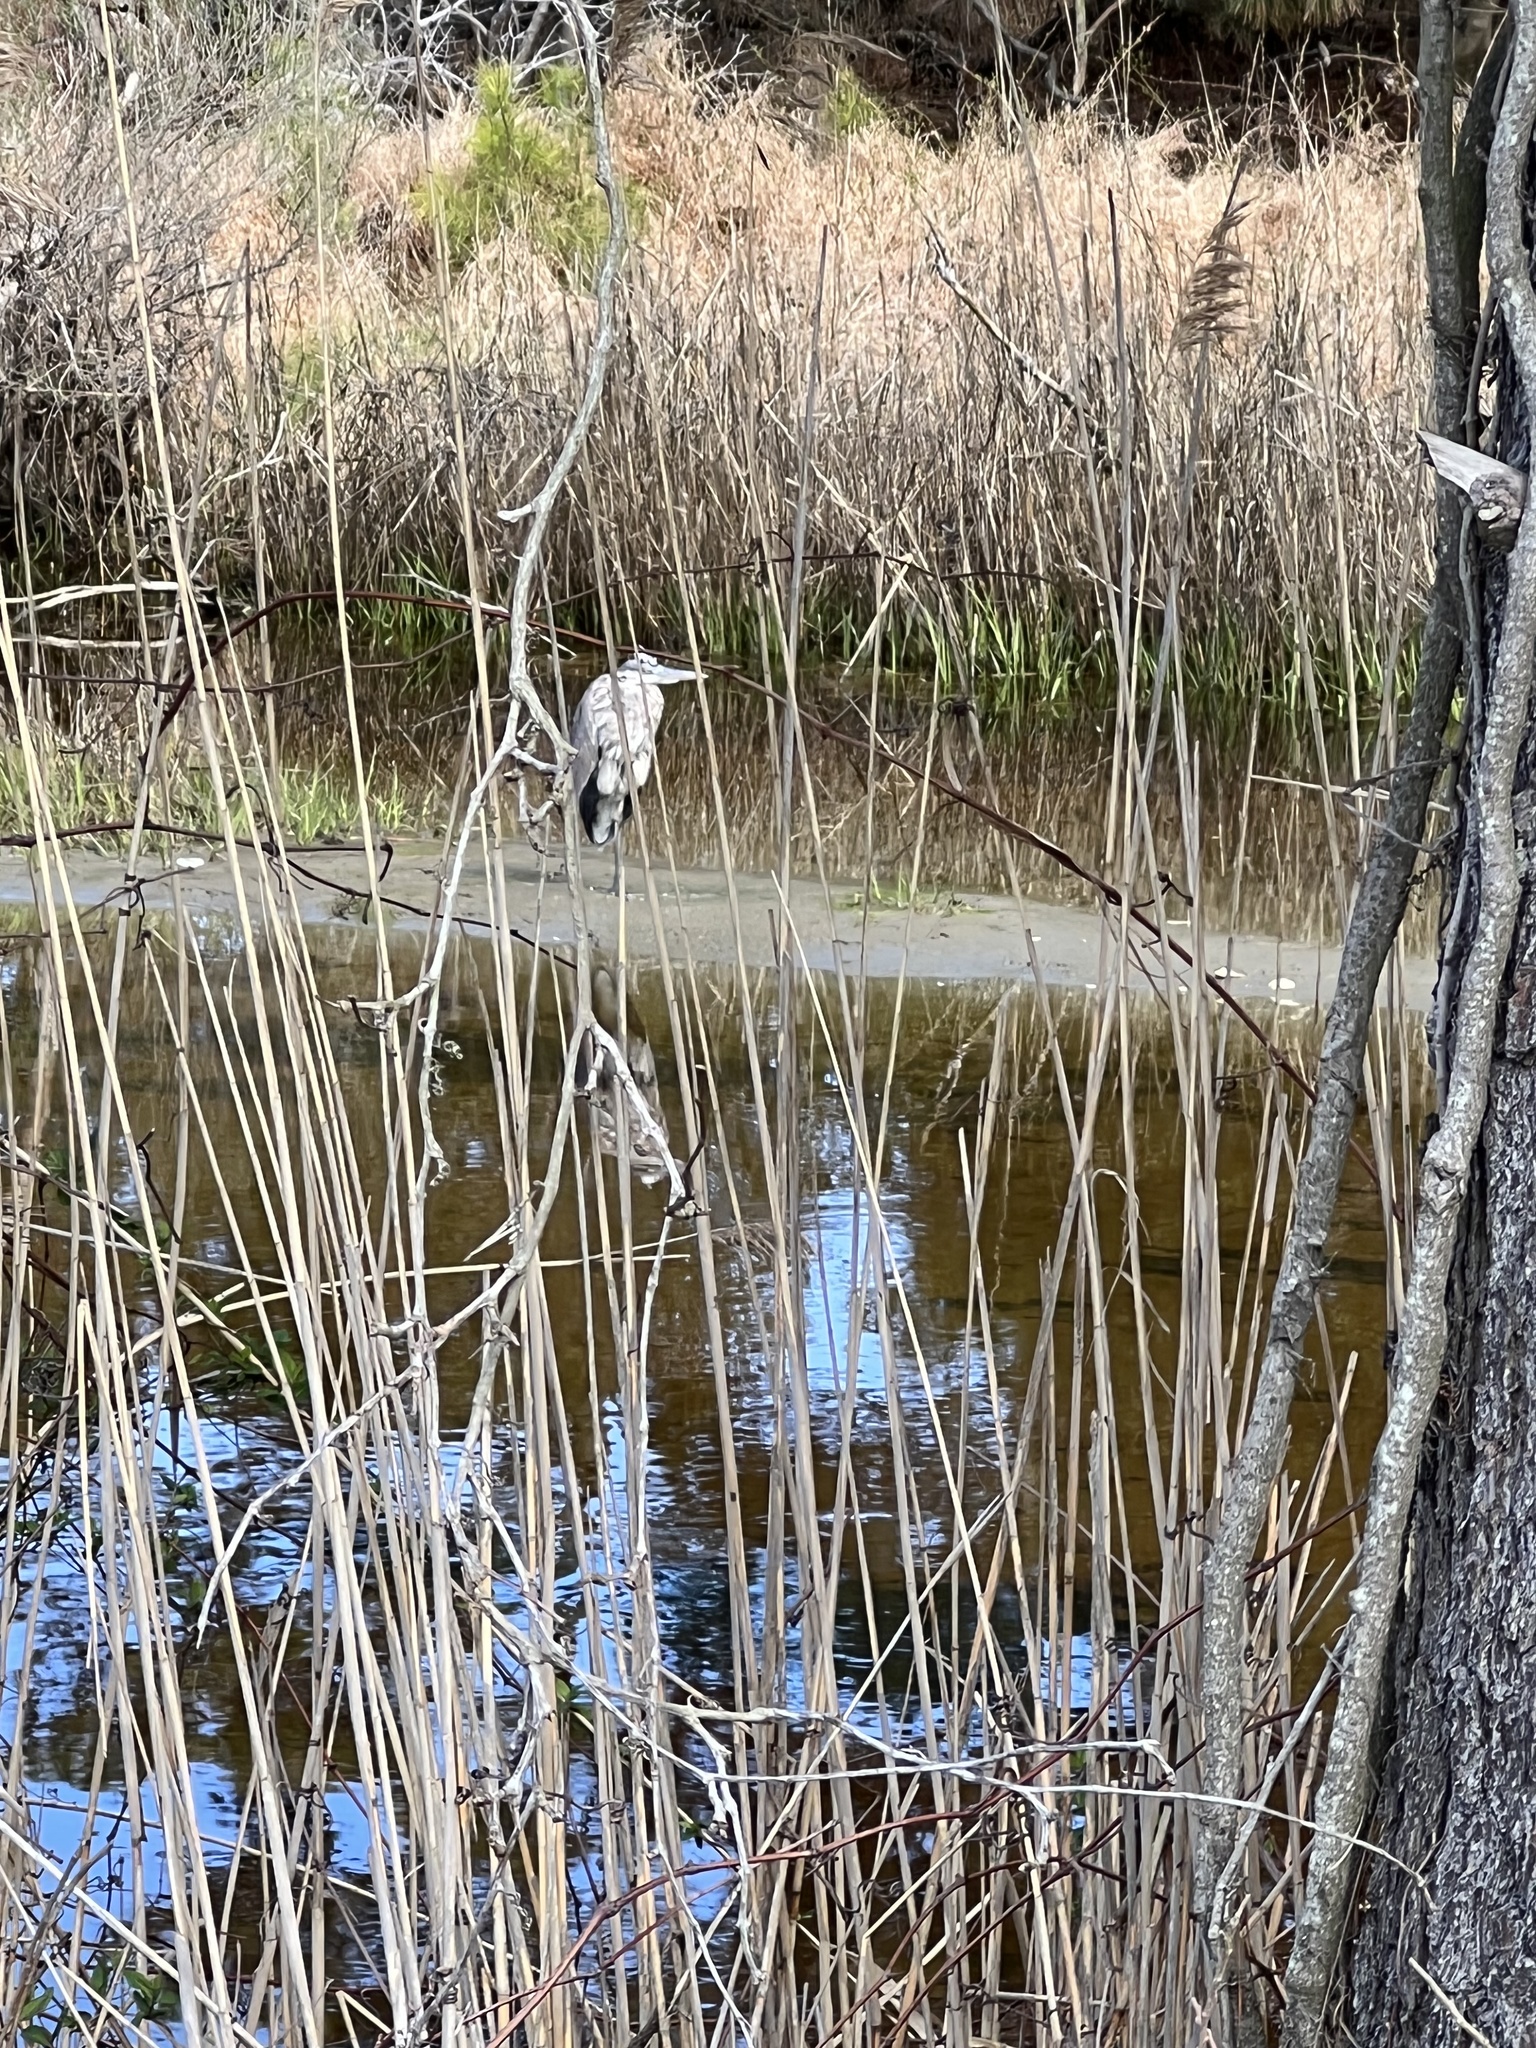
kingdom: Animalia
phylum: Chordata
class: Aves
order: Pelecaniformes
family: Ardeidae
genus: Ardea
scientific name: Ardea herodias
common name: Great blue heron
